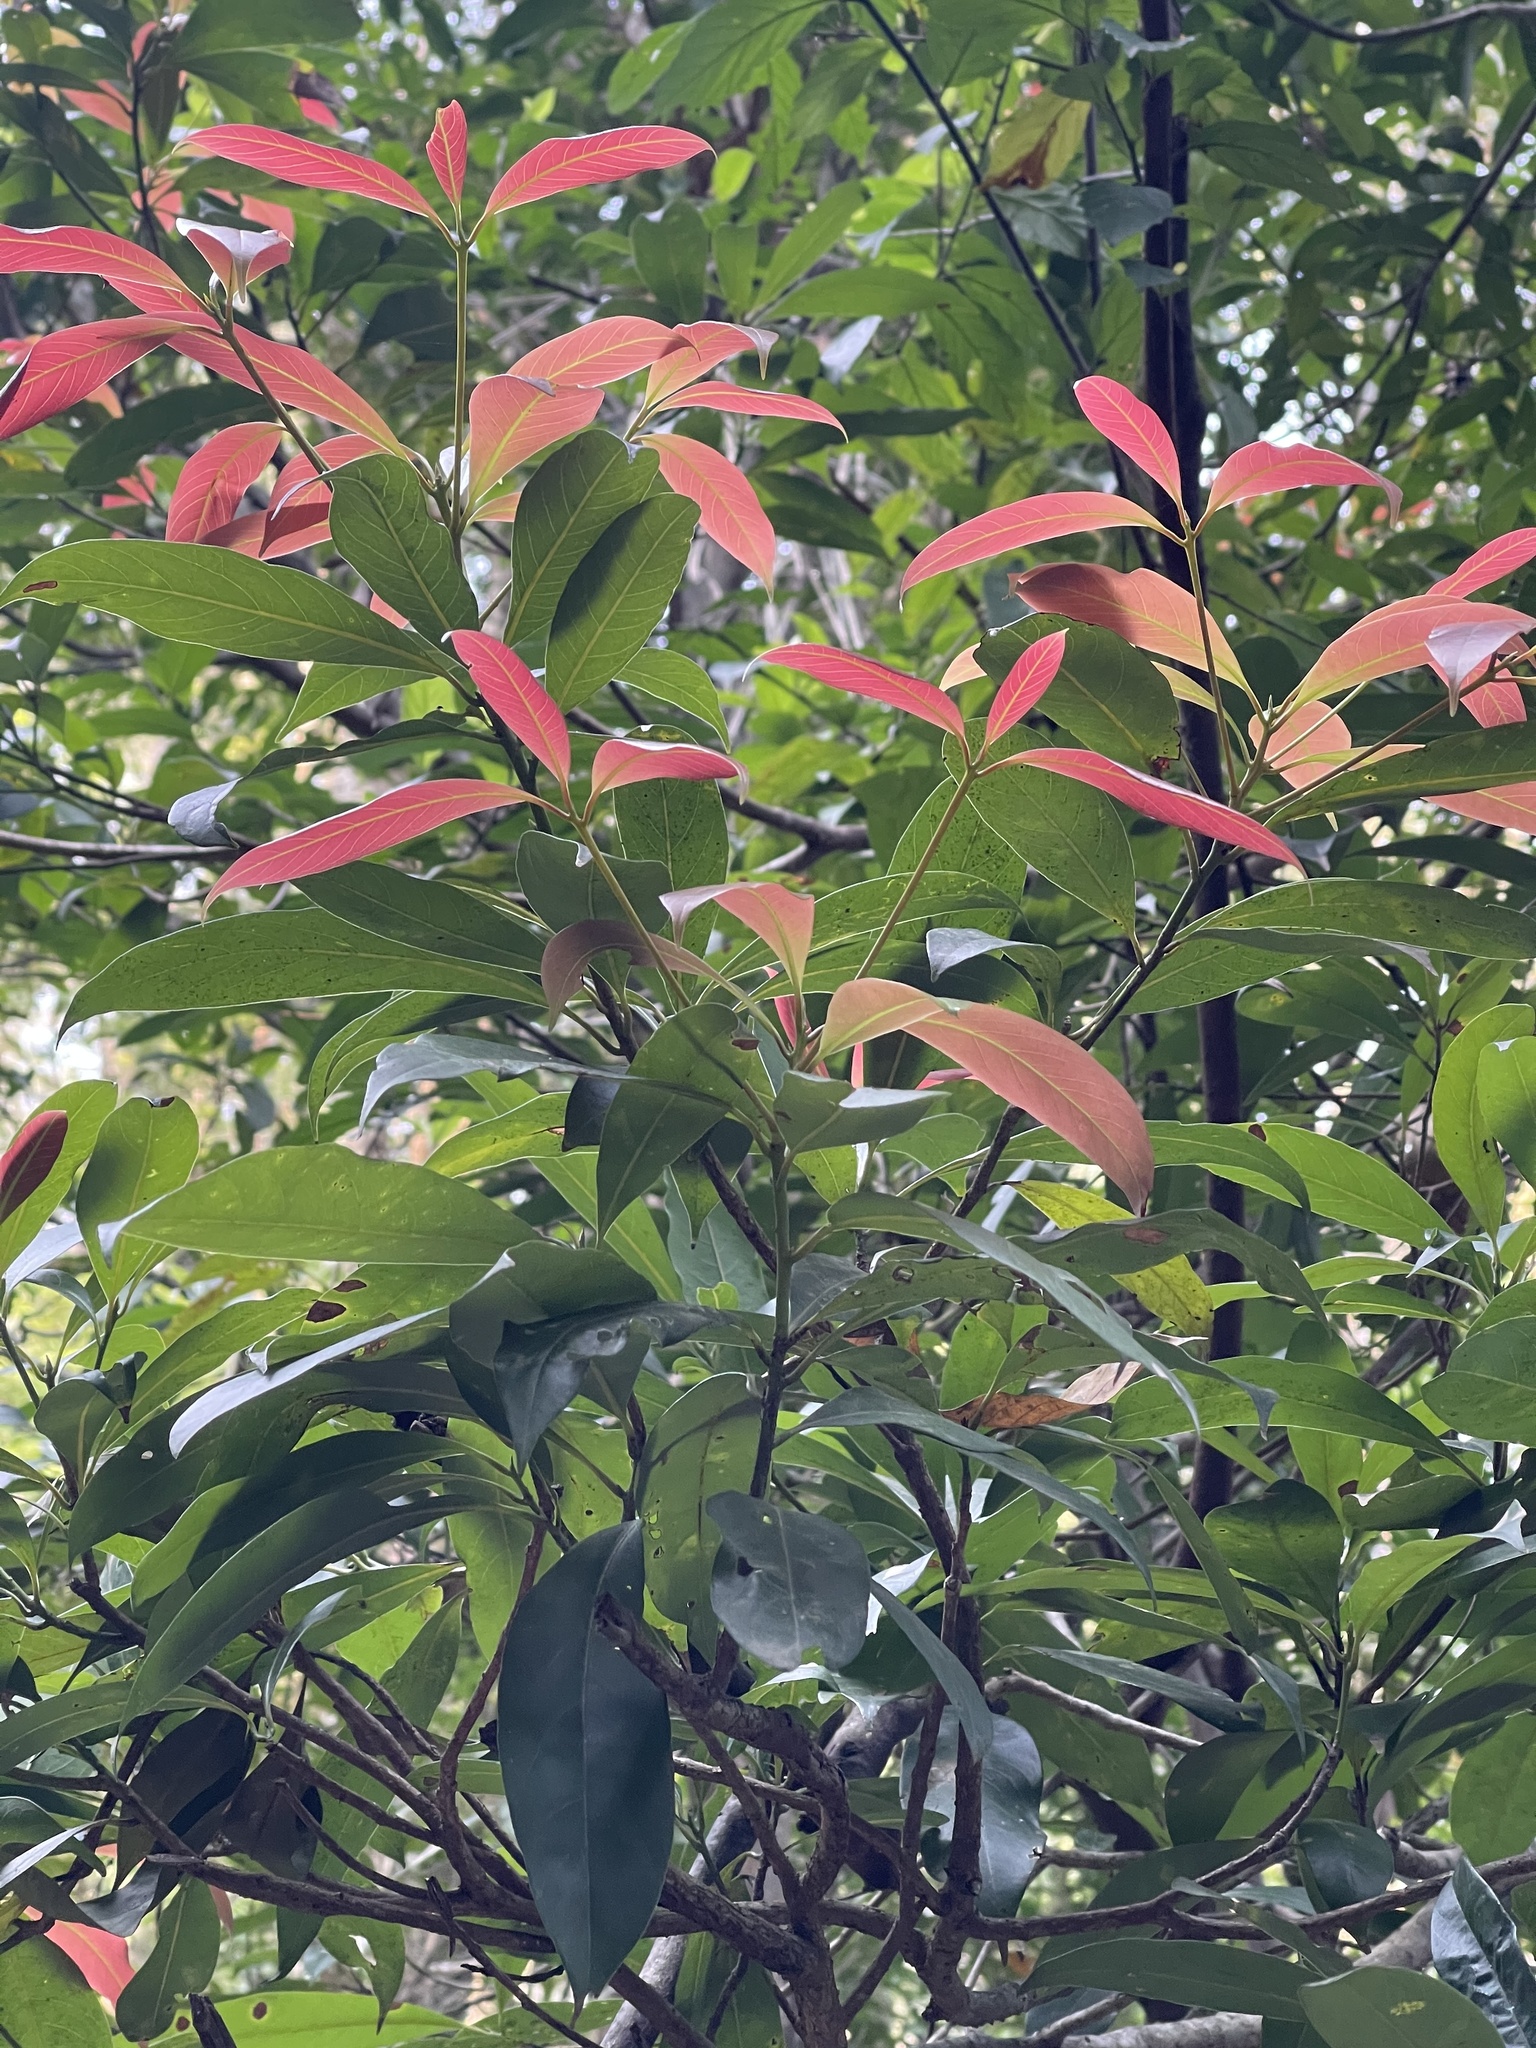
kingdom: Plantae
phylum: Tracheophyta
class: Magnoliopsida
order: Fagales
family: Fagaceae
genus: Lithocarpus
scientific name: Lithocarpus hancei
